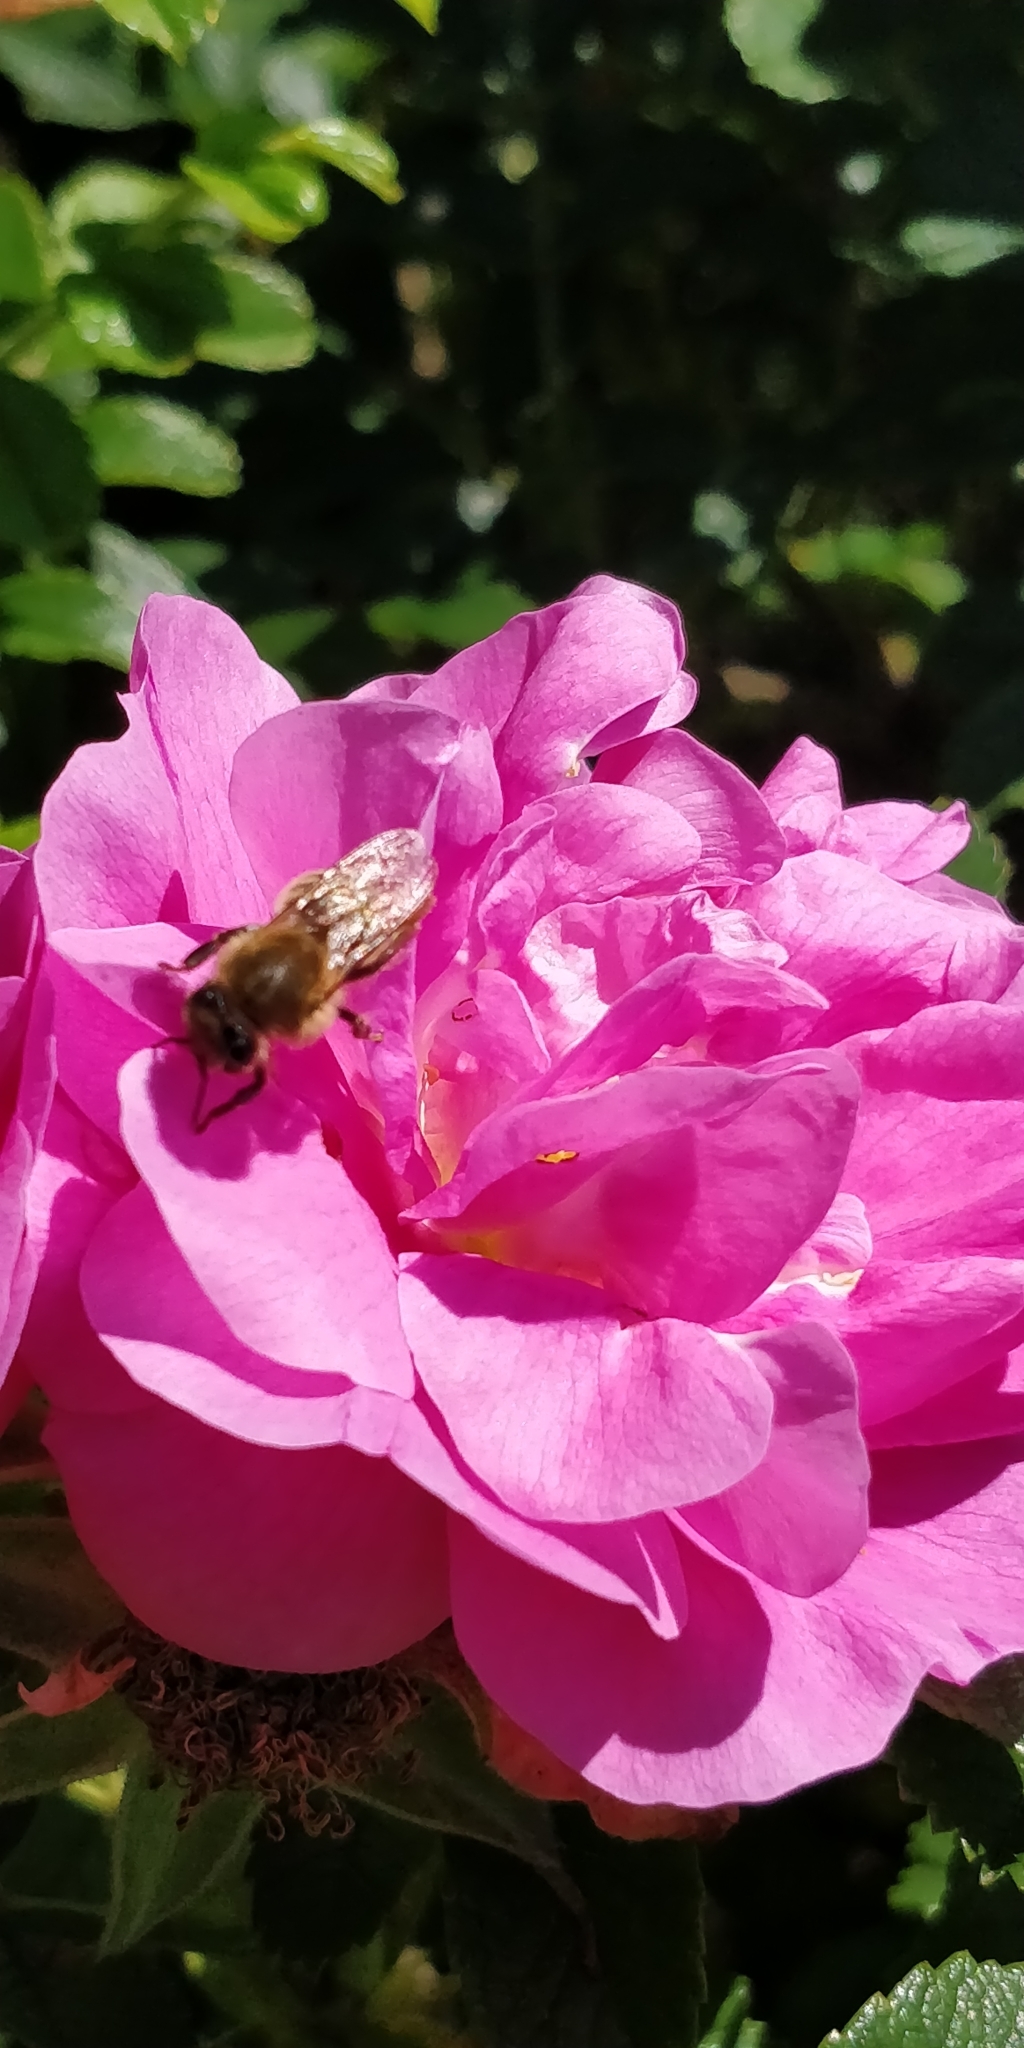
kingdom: Animalia
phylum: Arthropoda
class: Insecta
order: Hymenoptera
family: Apidae
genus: Apis
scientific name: Apis mellifera
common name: Honey bee
